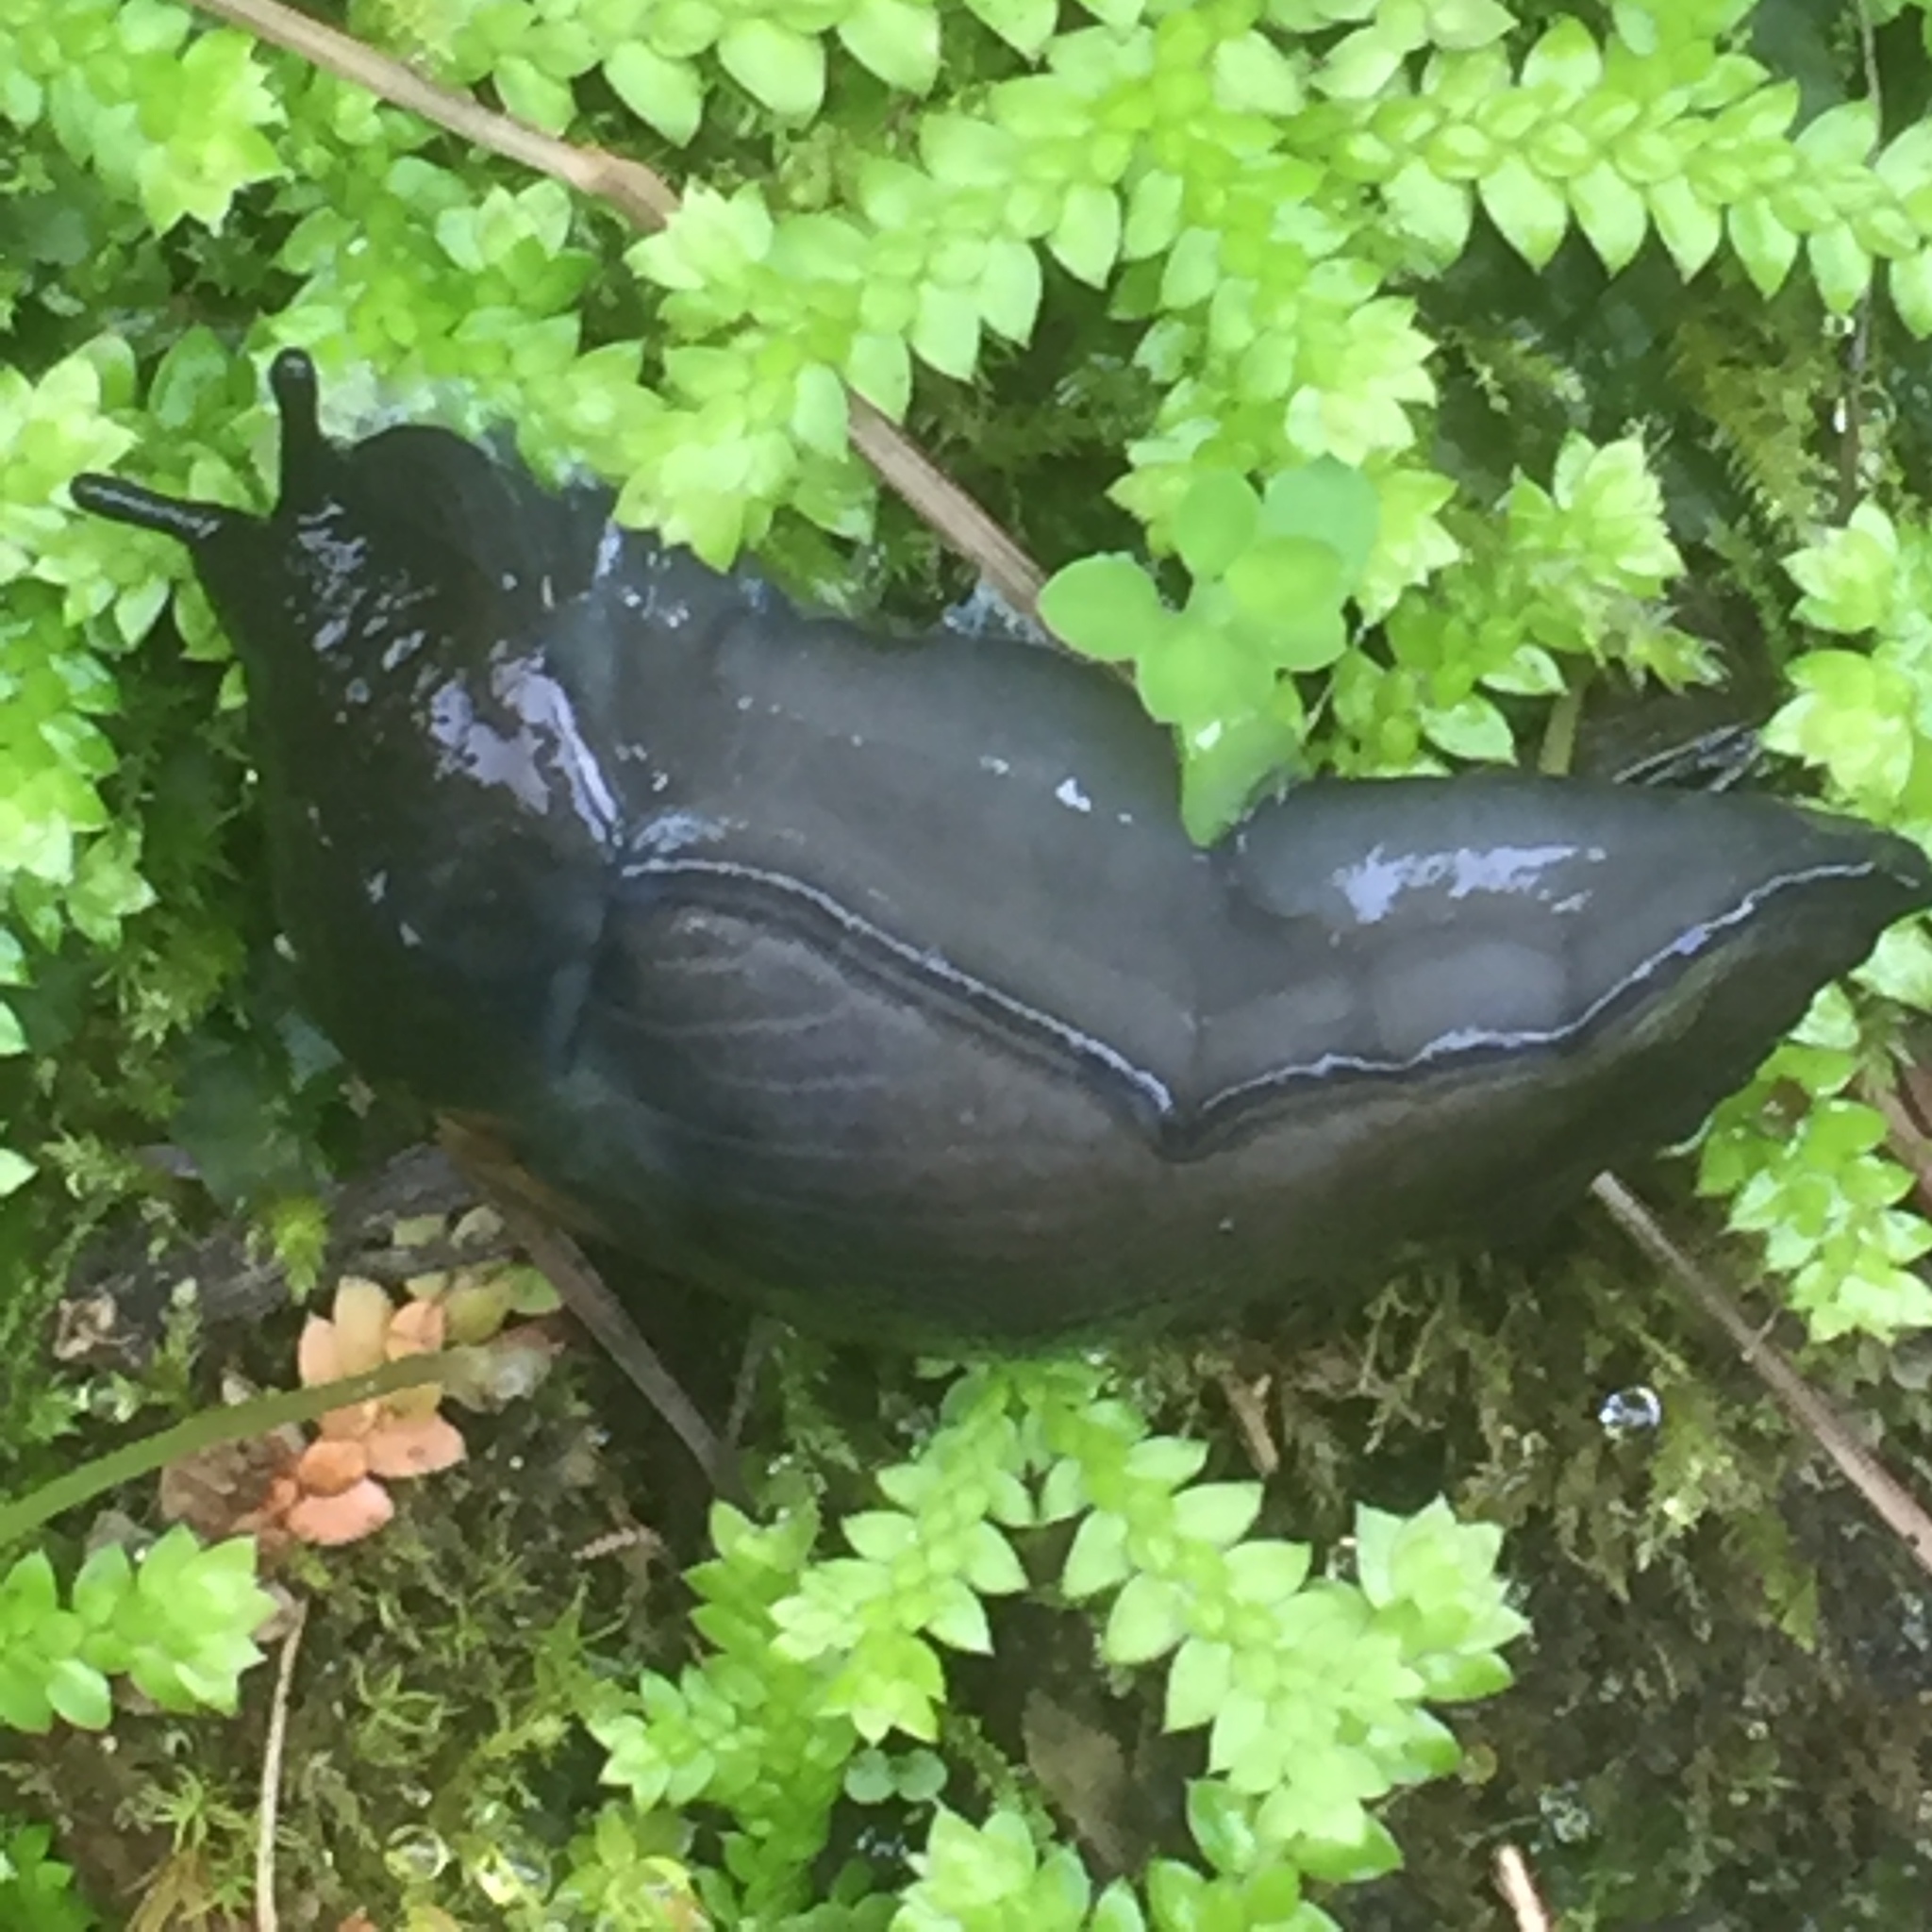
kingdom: Animalia
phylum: Mollusca
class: Gastropoda
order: Stylommatophora
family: Milacidae
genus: Milax
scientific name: Milax gagates
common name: Greenhouse slug
